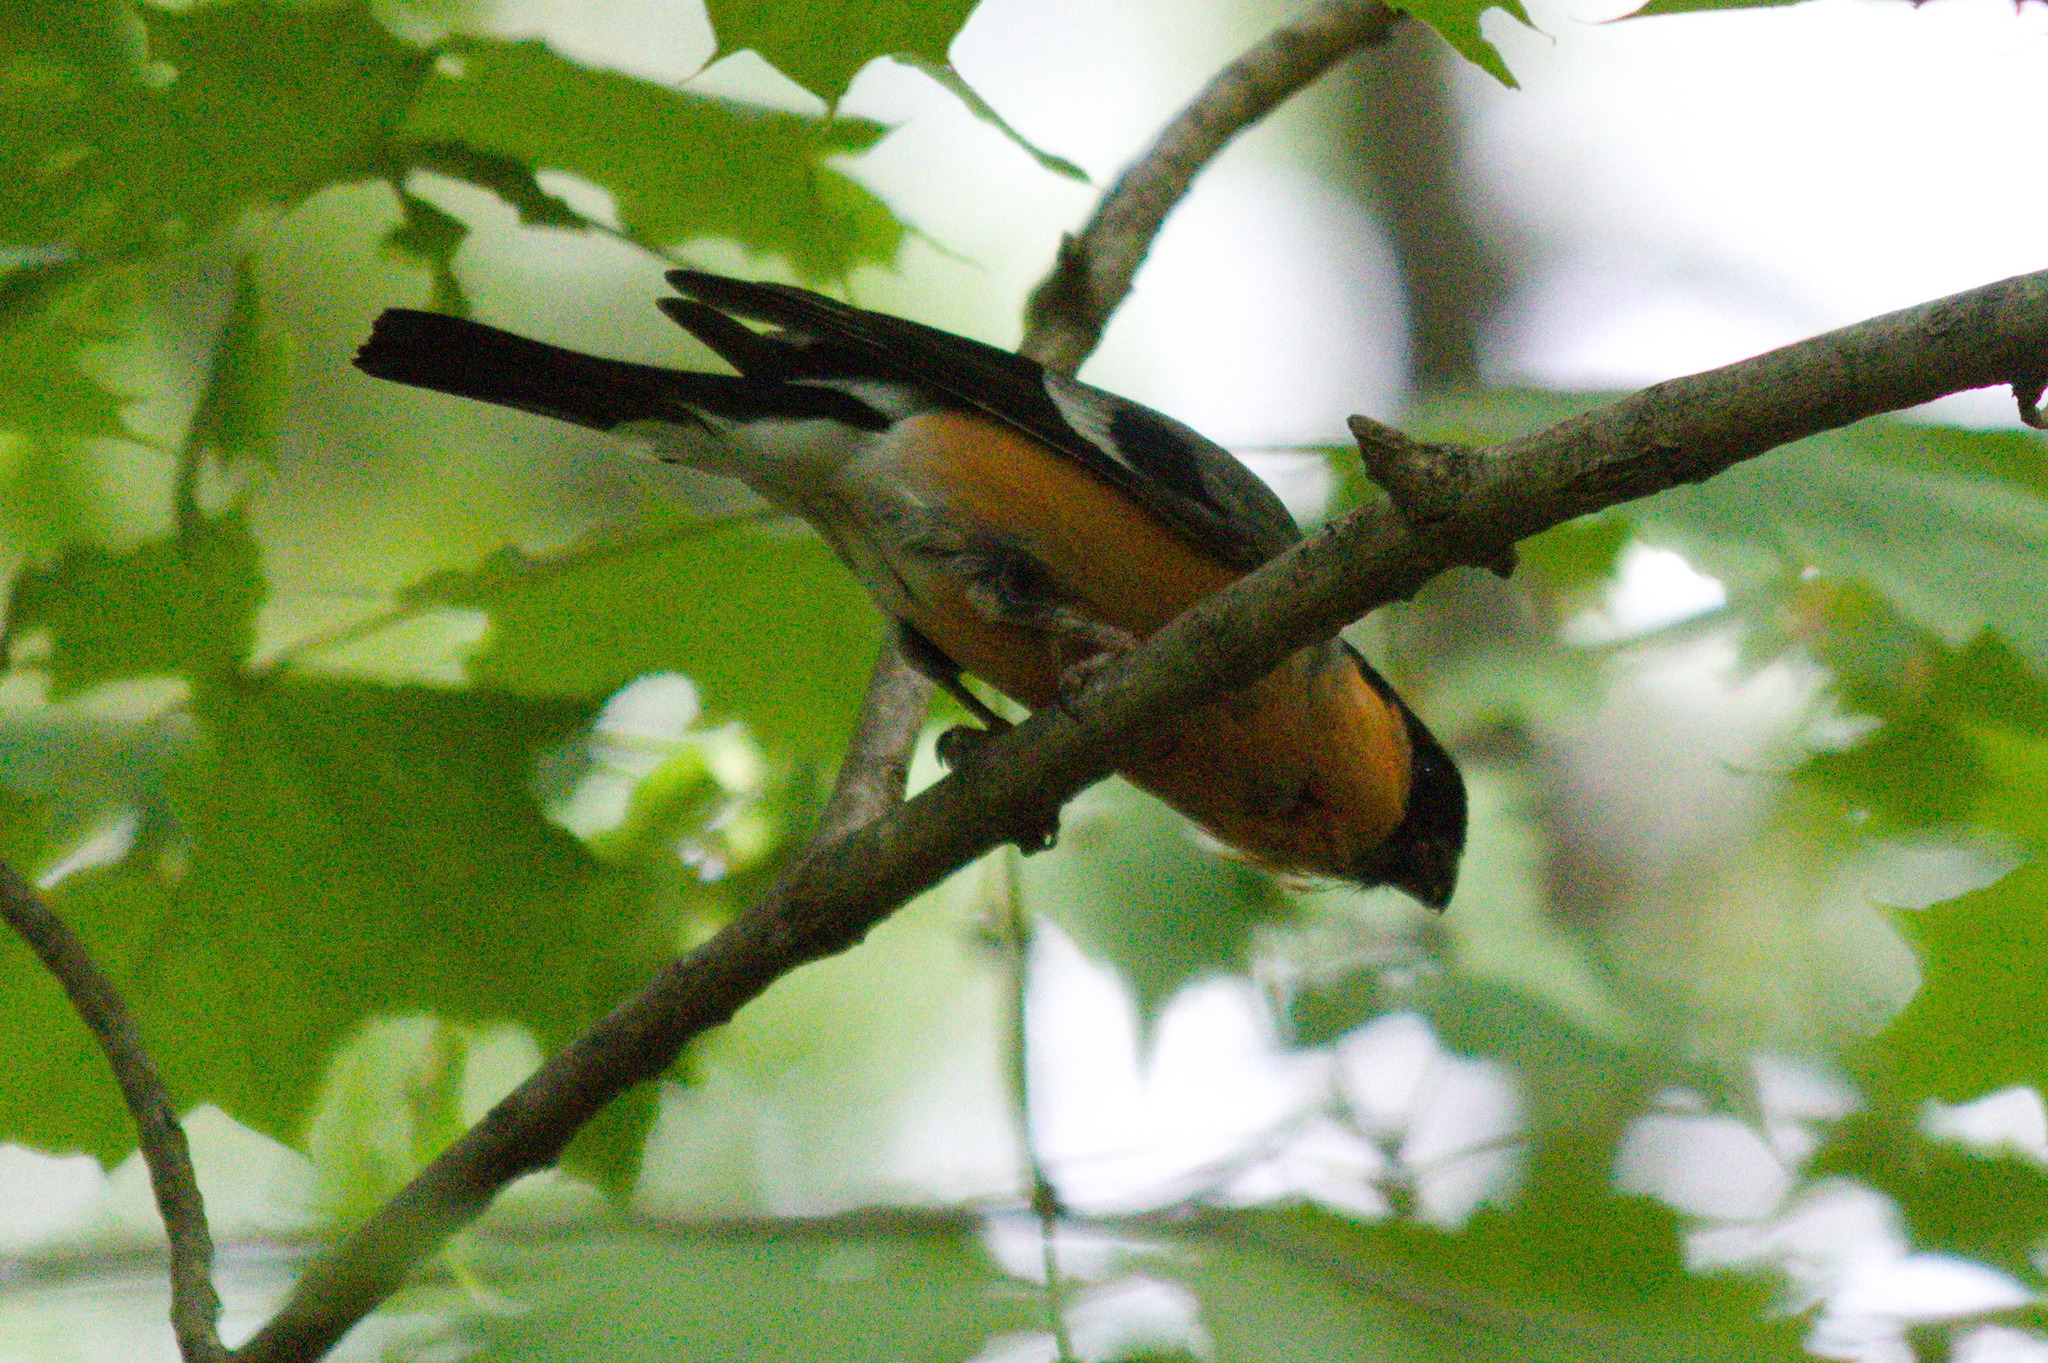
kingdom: Animalia
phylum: Chordata
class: Aves
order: Passeriformes
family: Fringillidae
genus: Pyrrhula
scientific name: Pyrrhula pyrrhula
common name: Eurasian bullfinch
